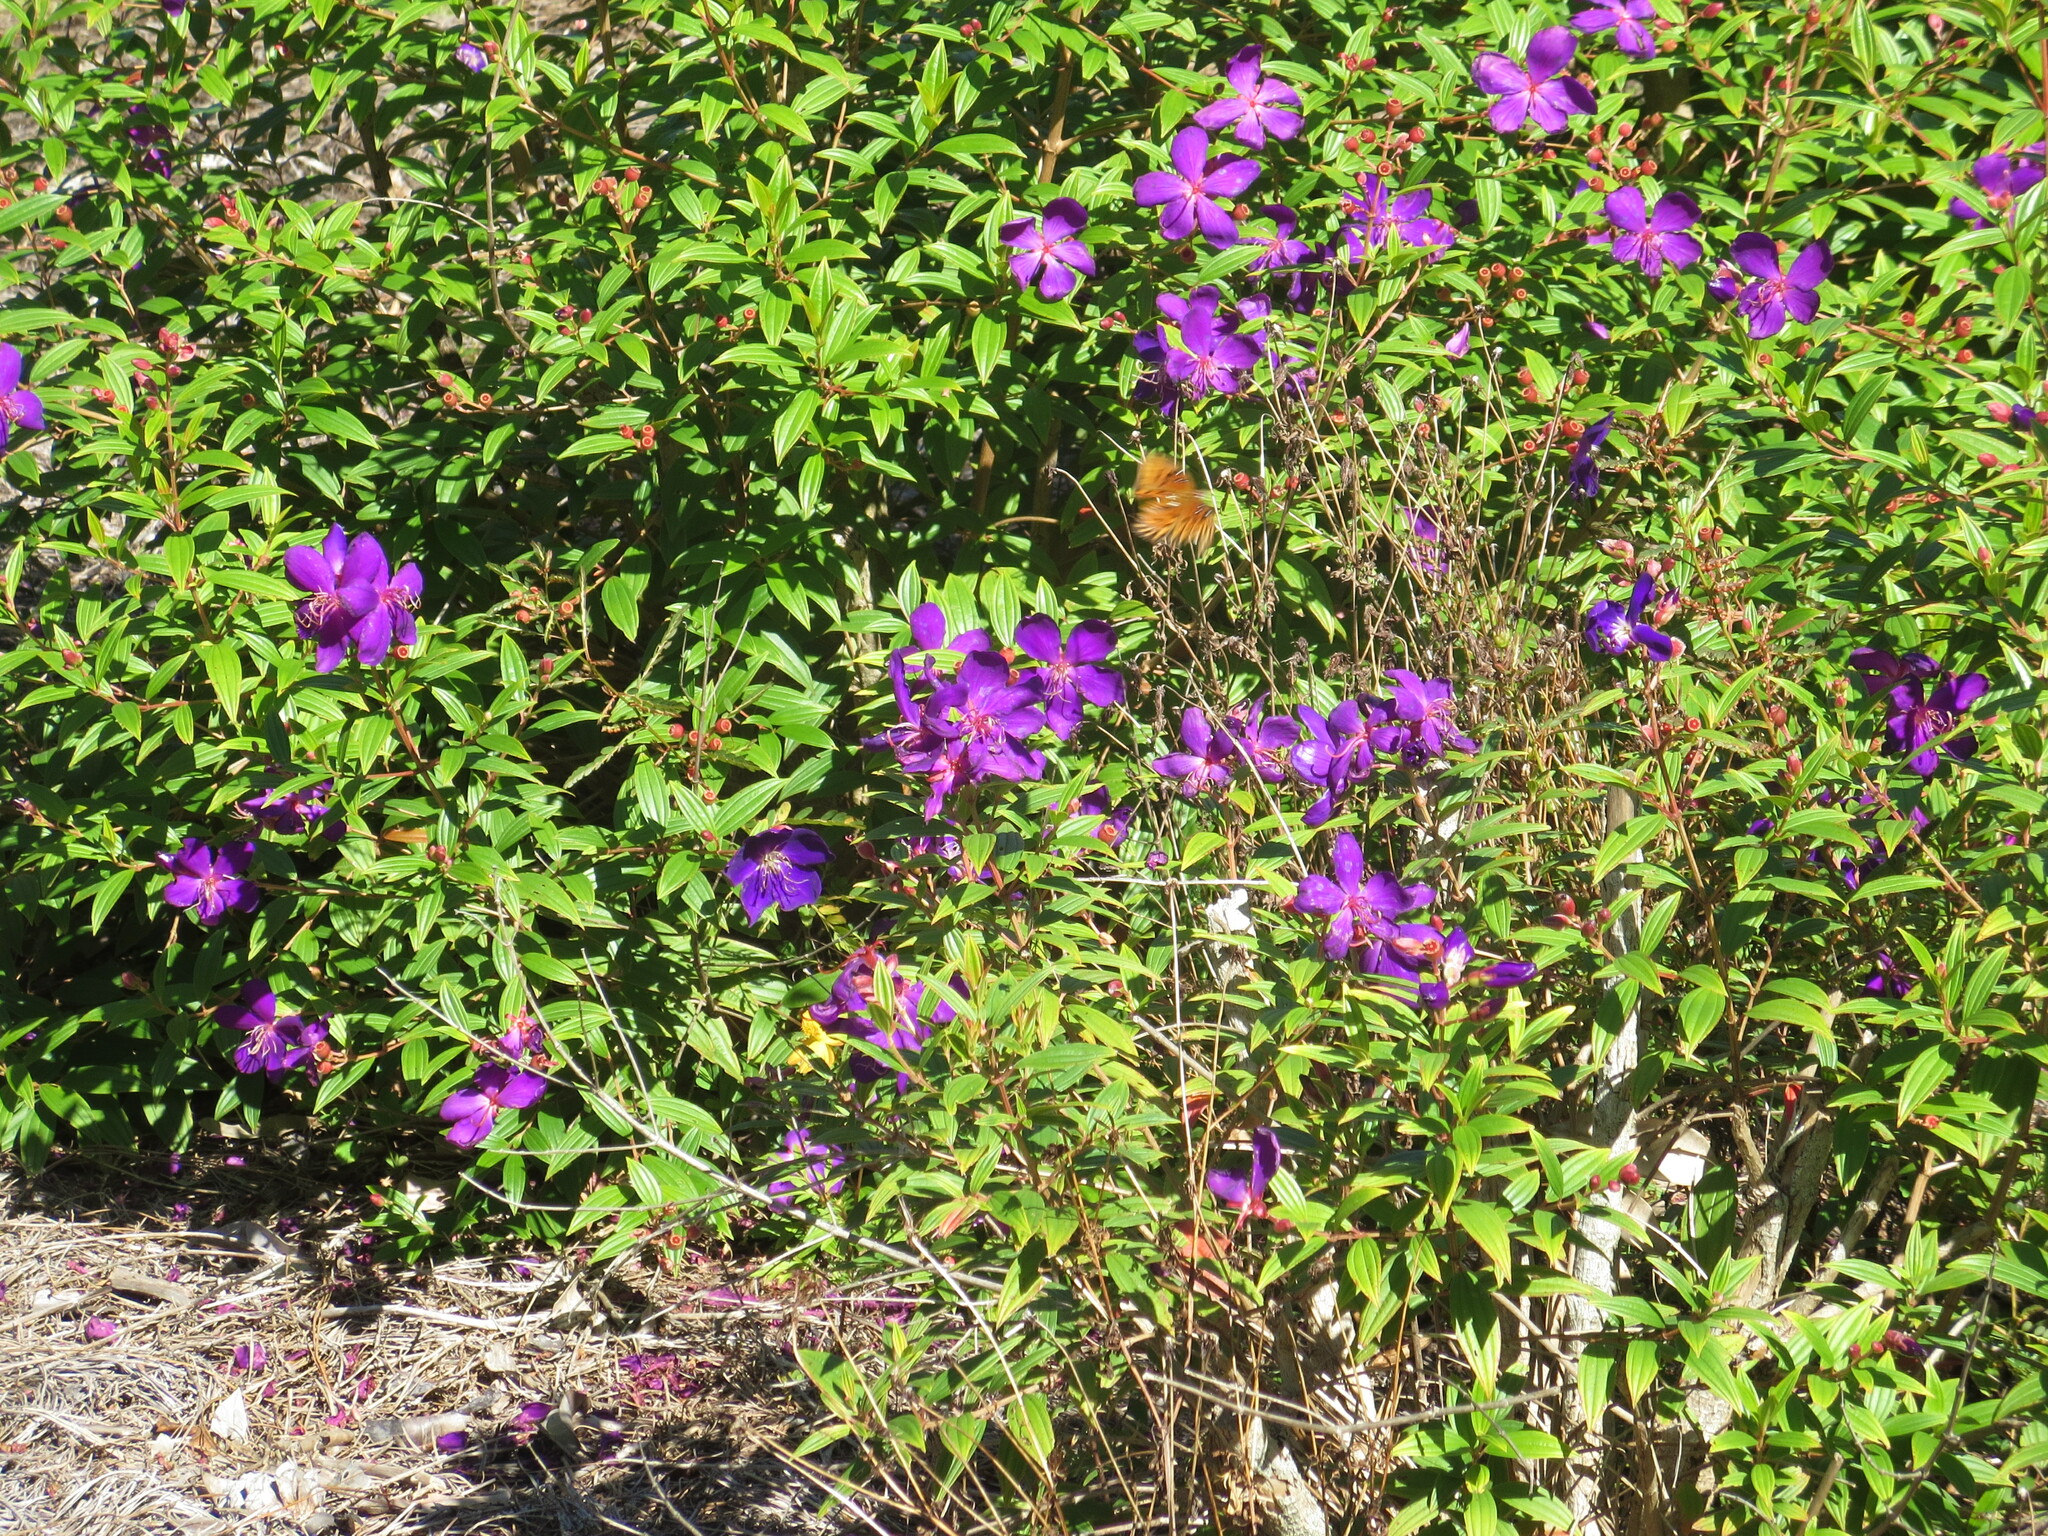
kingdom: Animalia
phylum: Arthropoda
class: Insecta
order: Lepidoptera
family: Nymphalidae
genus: Dione
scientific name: Dione vanillae
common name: Gulf fritillary
